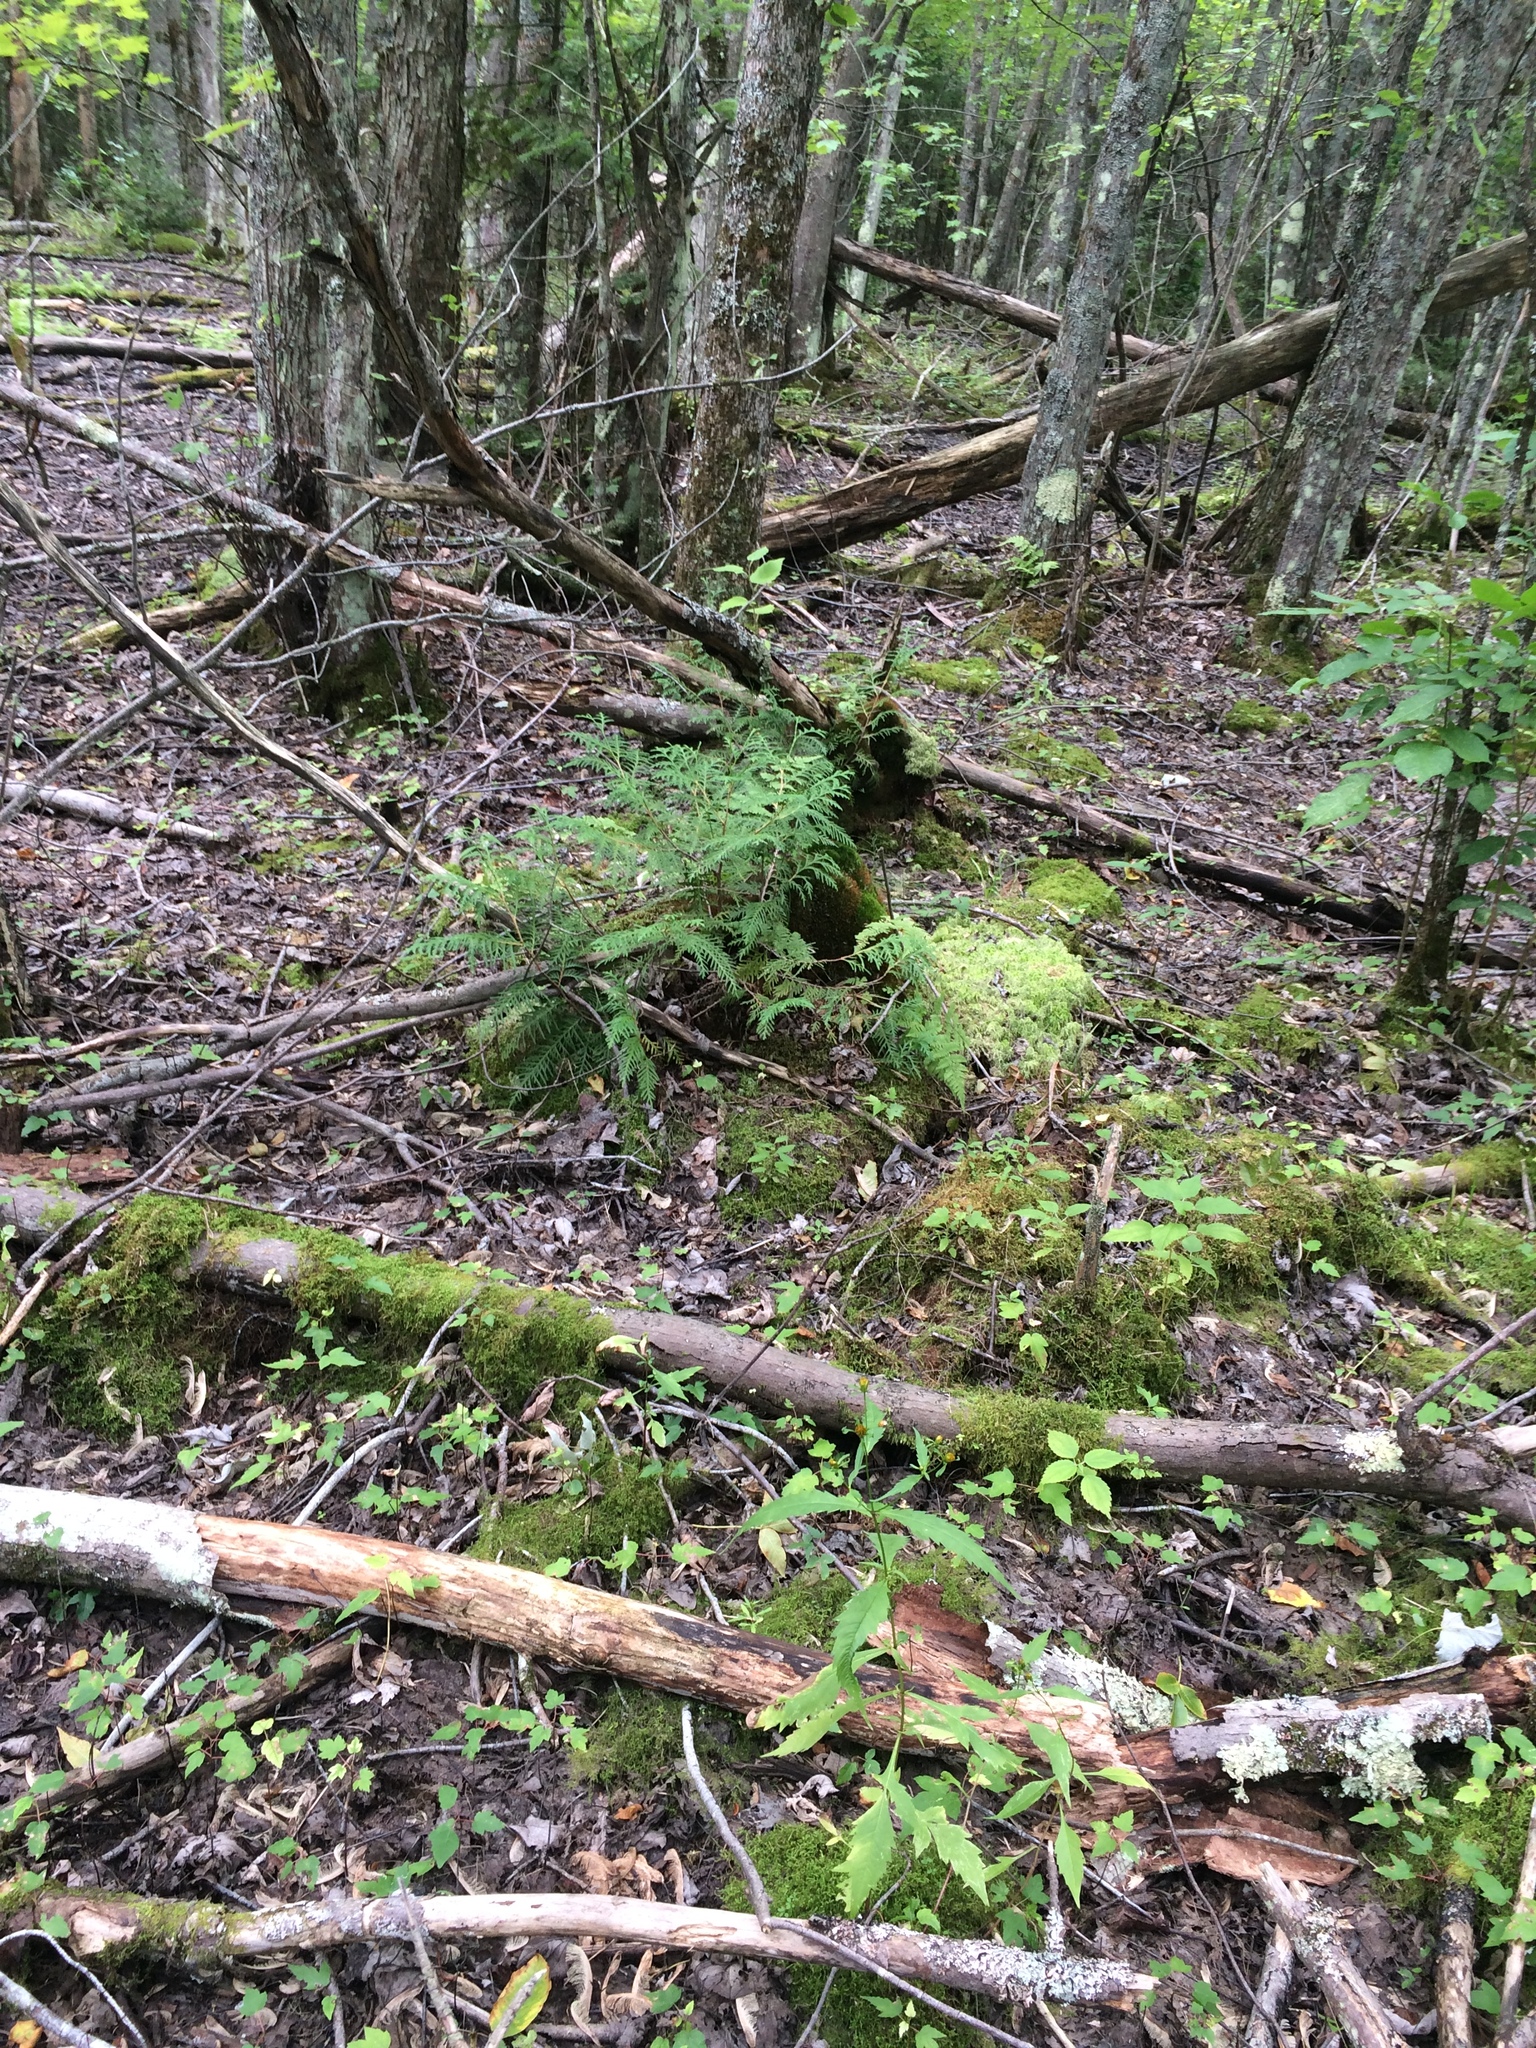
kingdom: Plantae
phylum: Tracheophyta
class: Liliopsida
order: Asparagales
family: Orchidaceae
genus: Malaxis
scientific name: Malaxis monophyllos
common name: White adder's-mouth
